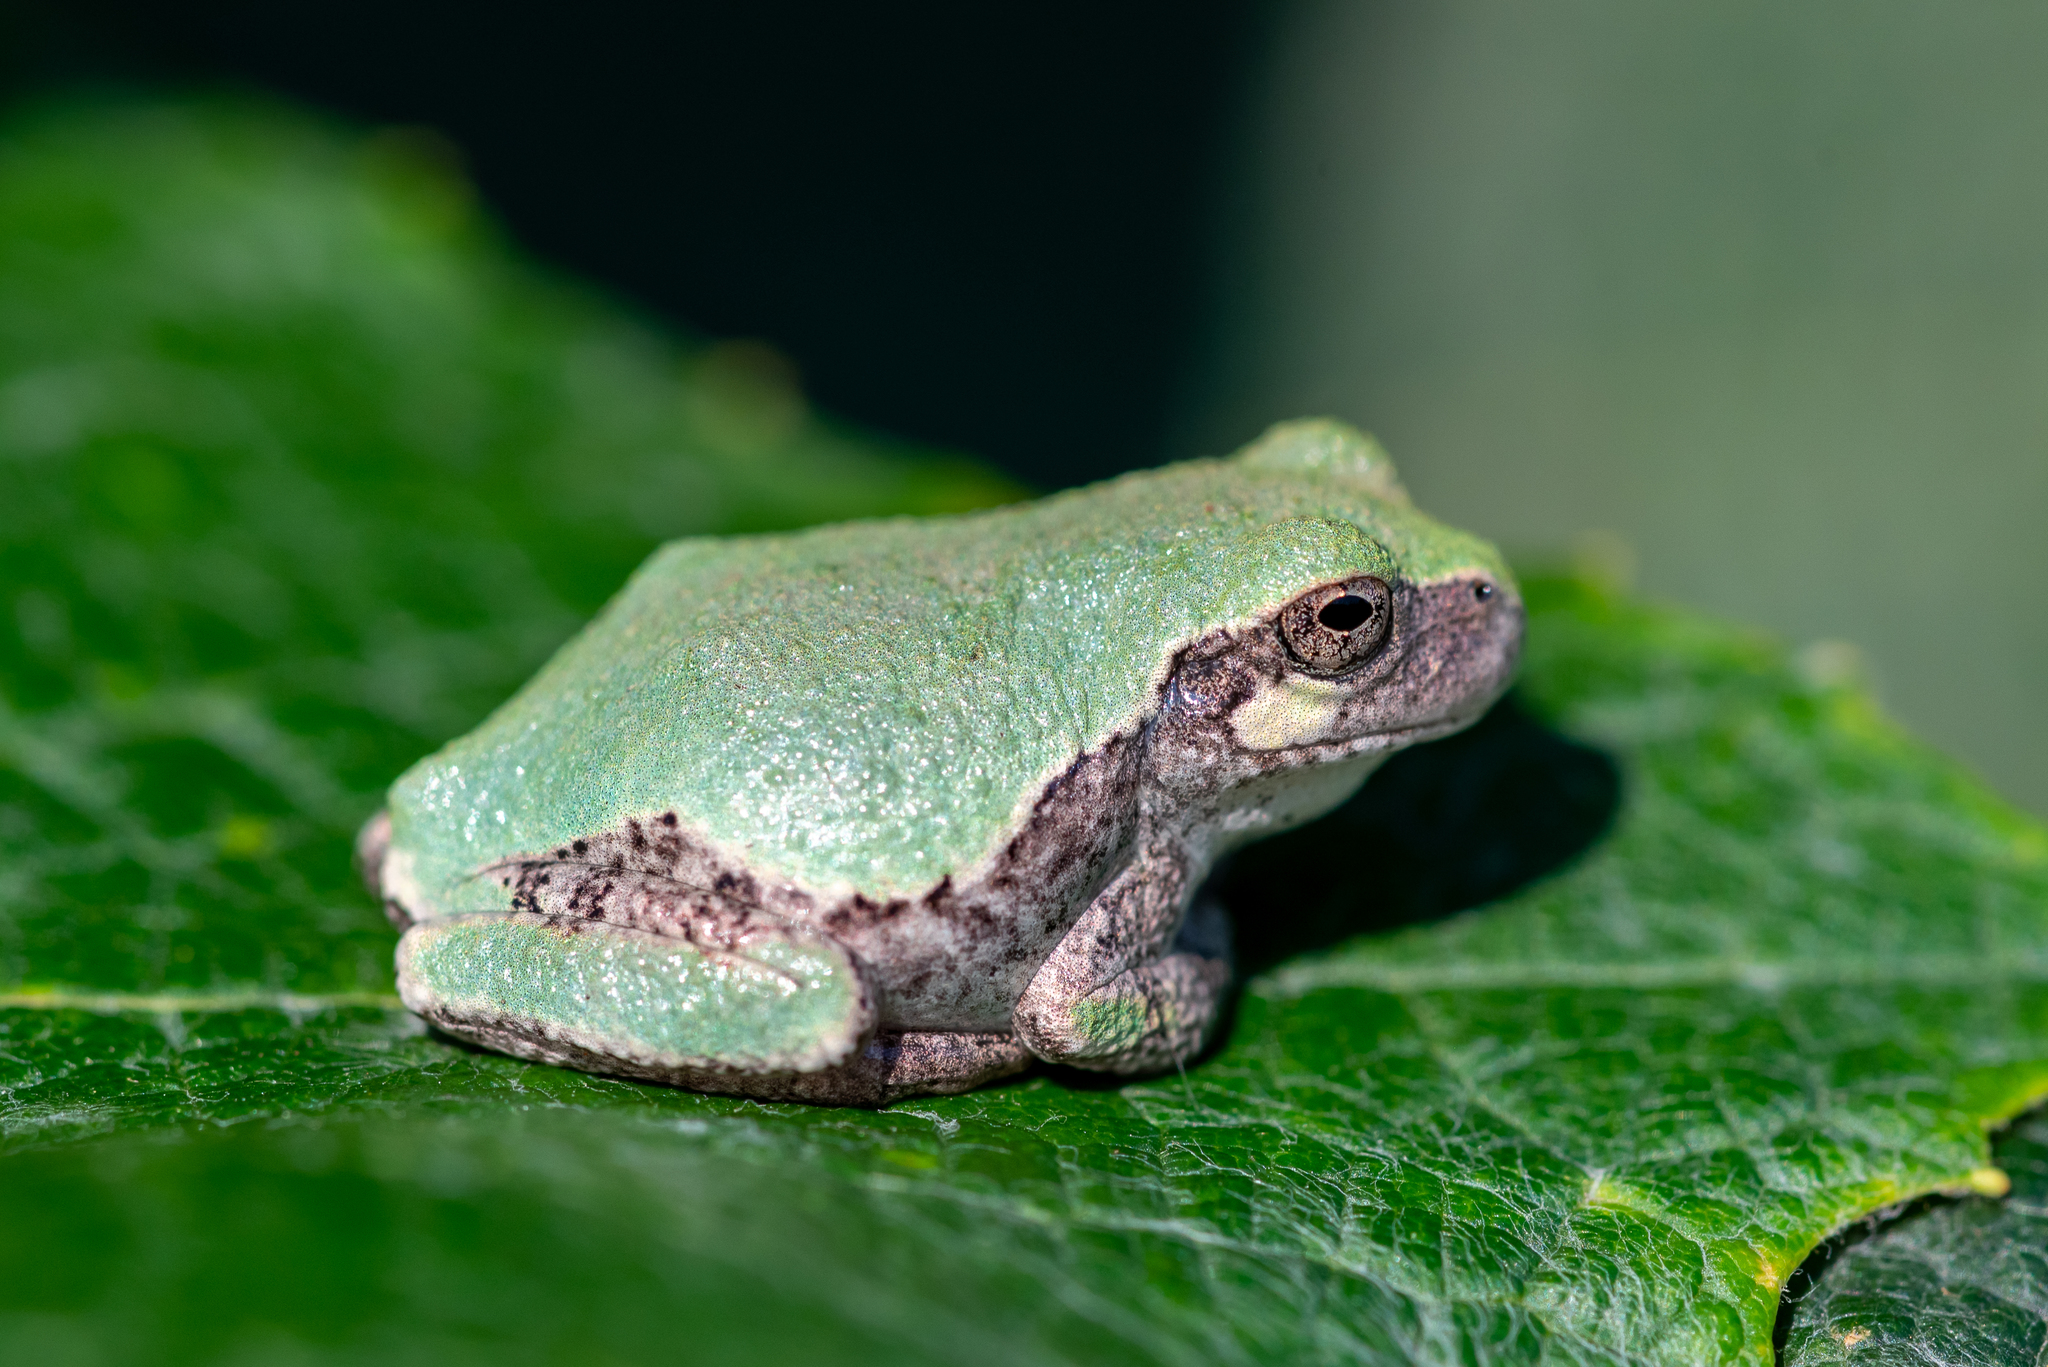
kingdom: Animalia
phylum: Chordata
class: Amphibia
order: Anura
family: Hylidae
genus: Hyla
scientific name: Hyla
